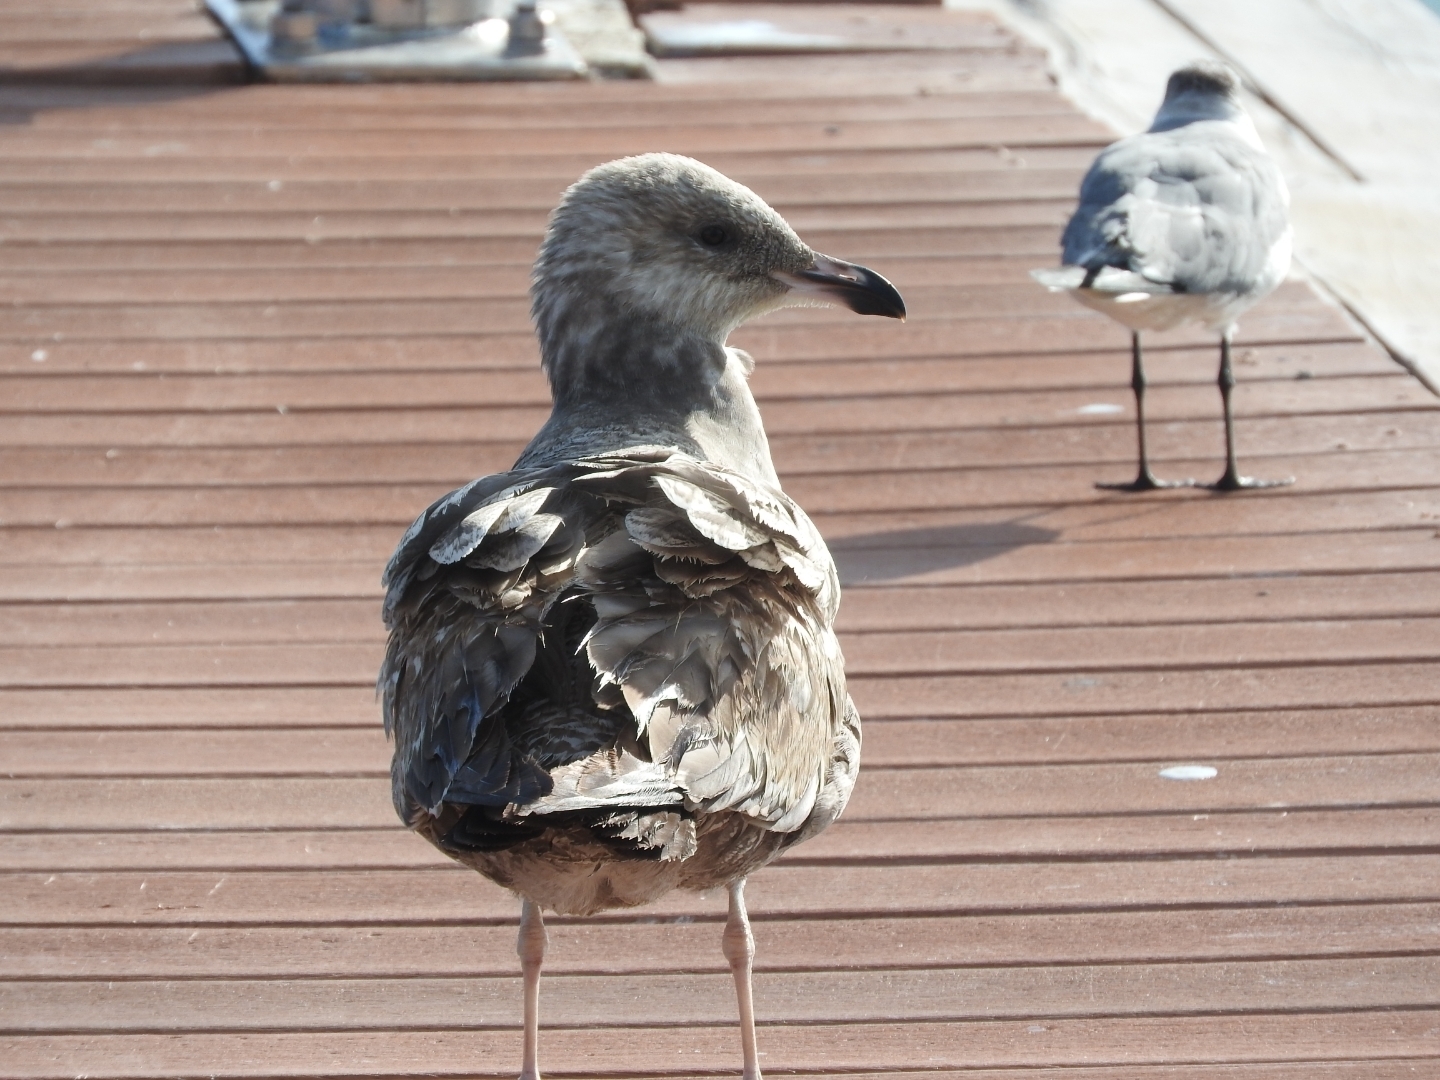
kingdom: Animalia
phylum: Chordata
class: Aves
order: Charadriiformes
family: Laridae
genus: Larus
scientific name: Larus fuscus
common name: Lesser black-backed gull
